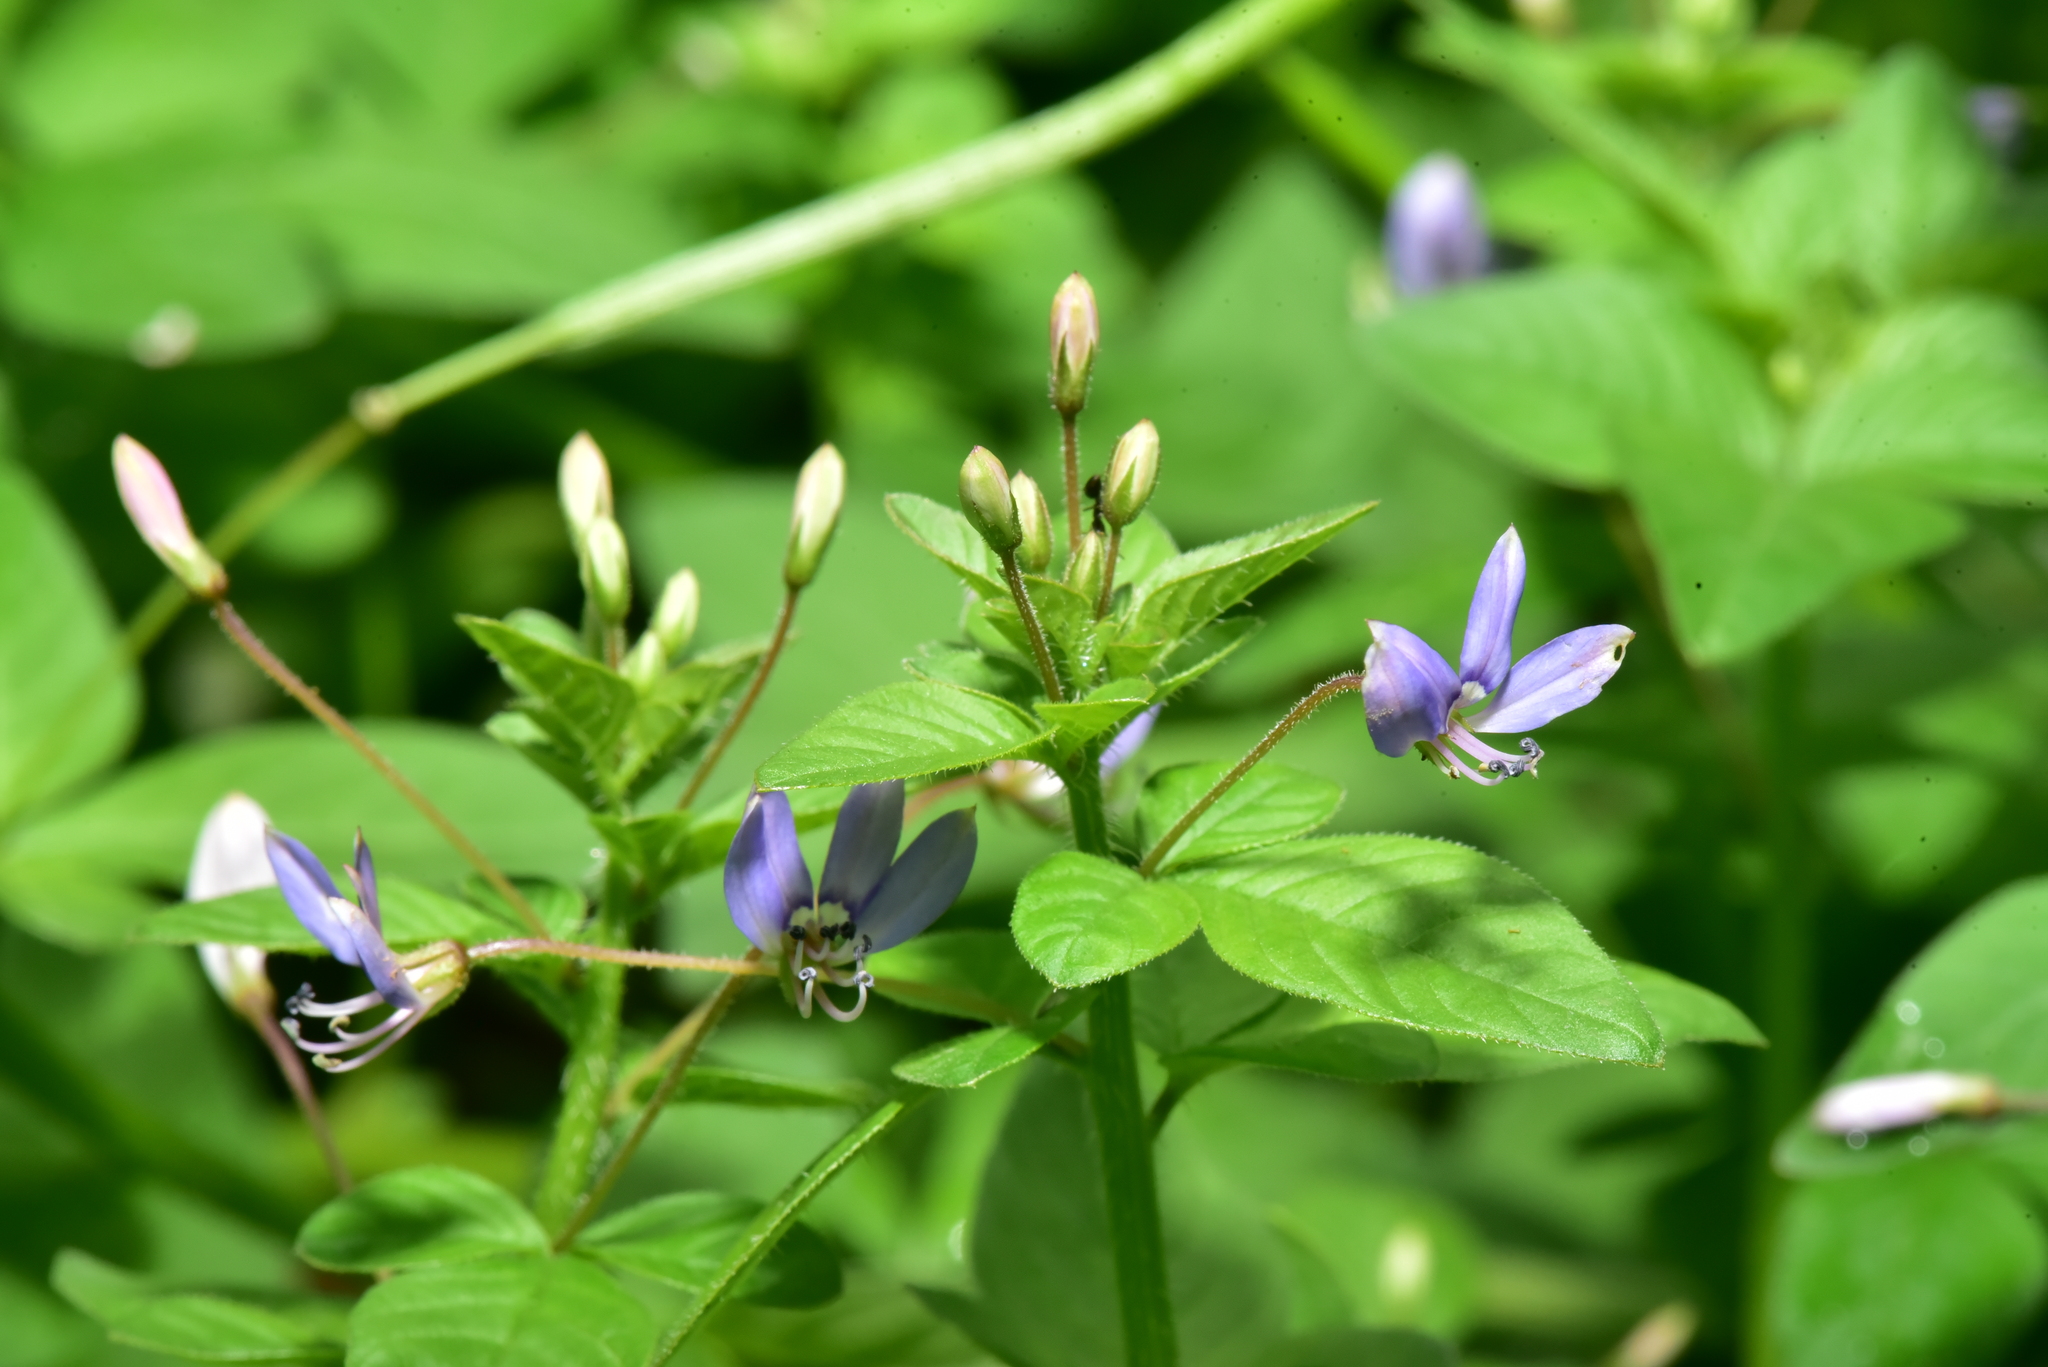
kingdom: Plantae
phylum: Tracheophyta
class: Magnoliopsida
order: Brassicales
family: Cleomaceae
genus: Sieruela
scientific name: Sieruela rutidosperma
